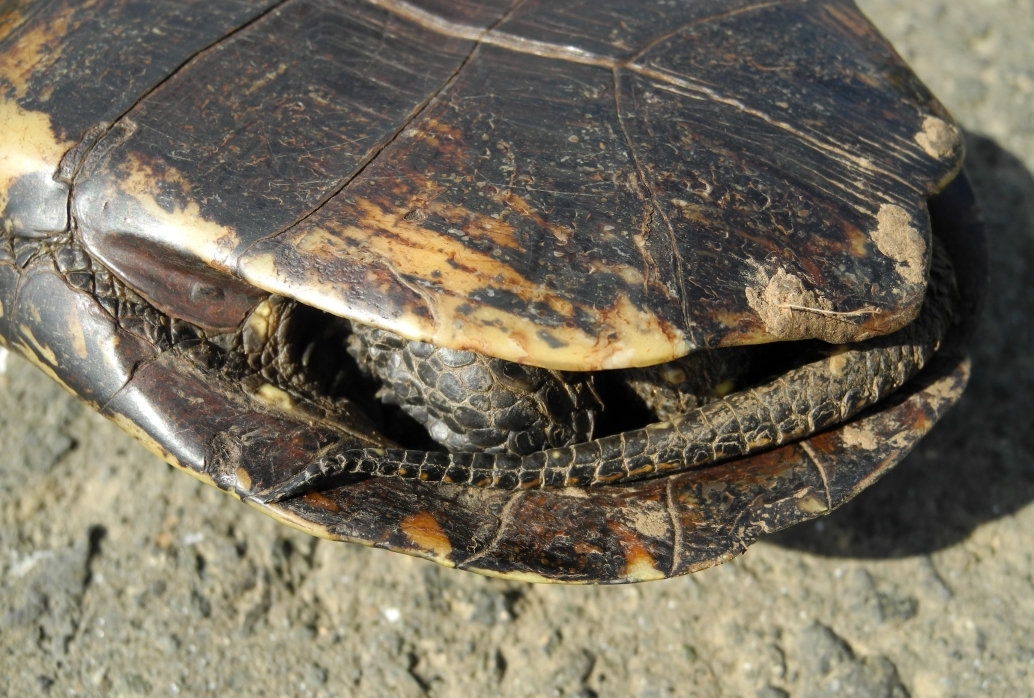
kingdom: Animalia
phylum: Chordata
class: Testudines
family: Emydidae
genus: Emys
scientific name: Emys orbicularis
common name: European pond turtle
